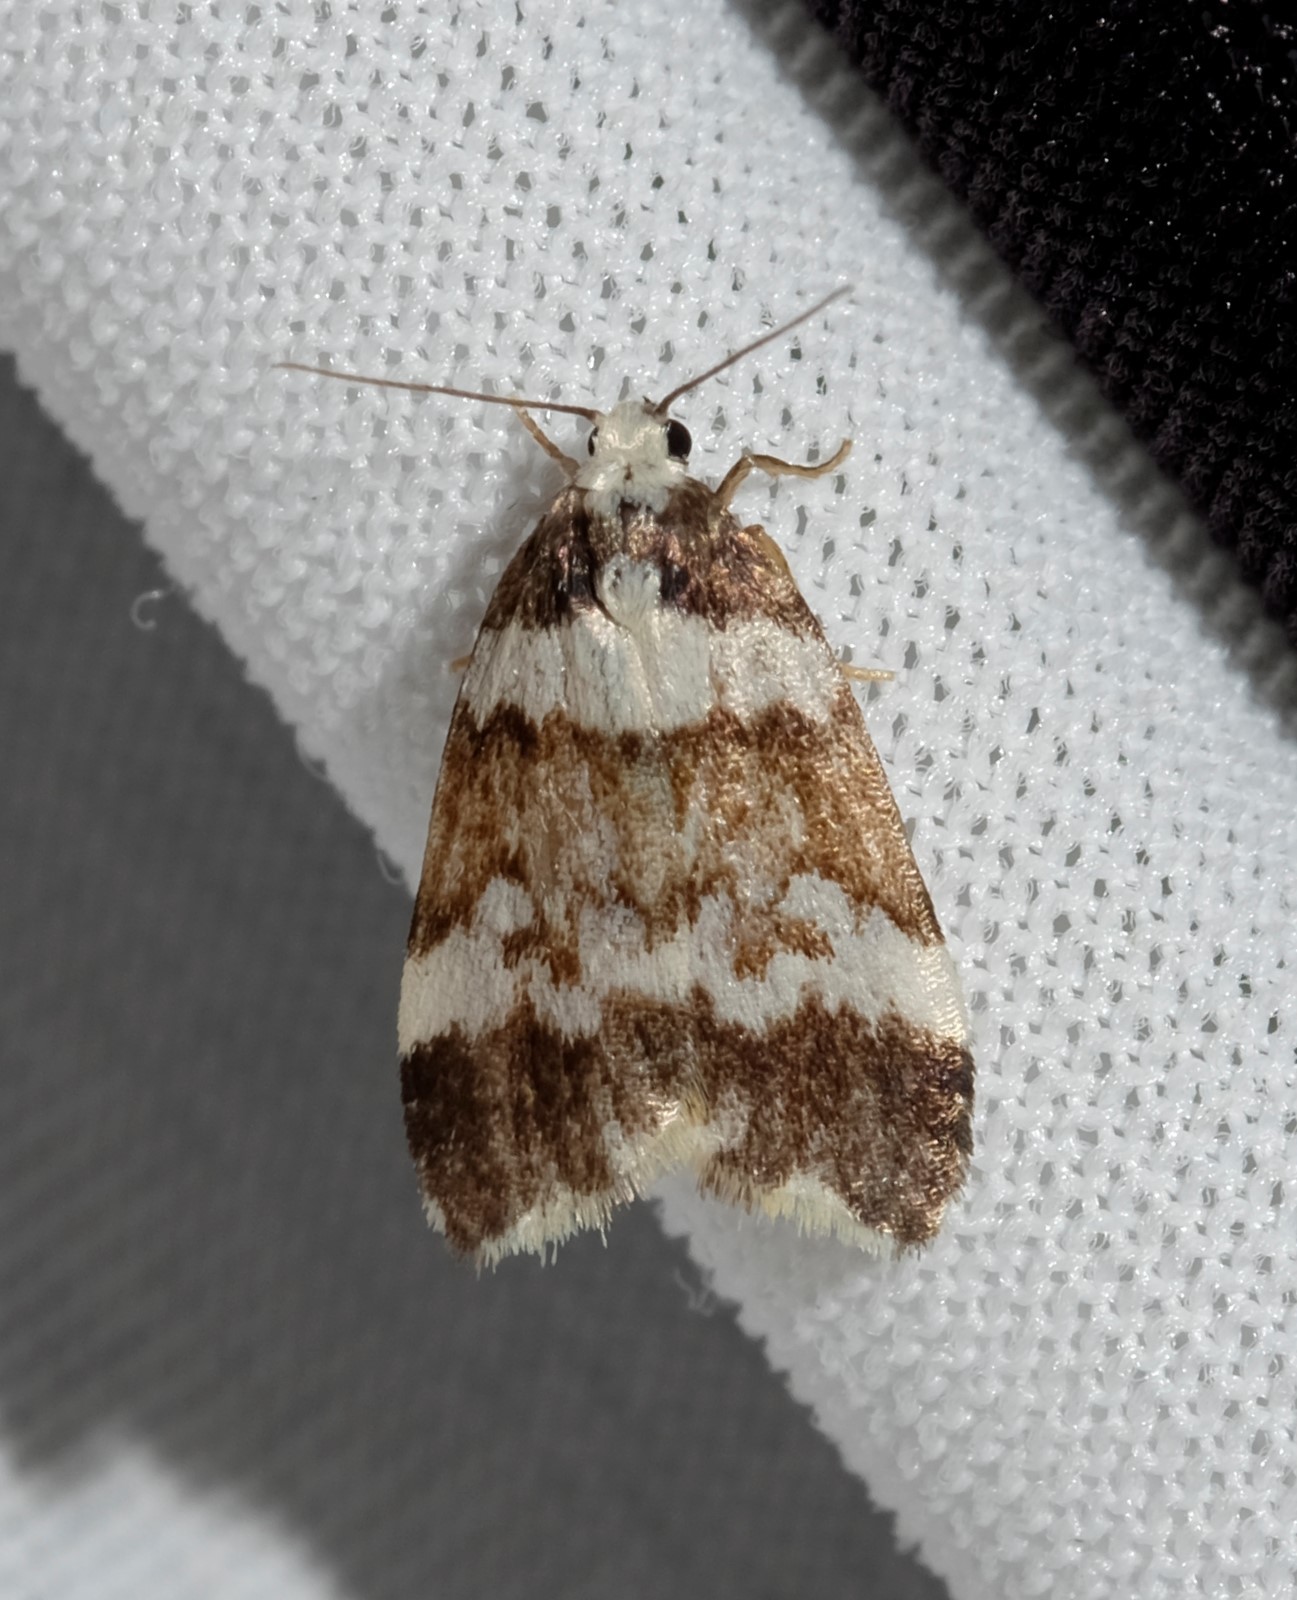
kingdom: Animalia
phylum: Arthropoda
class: Insecta
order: Lepidoptera
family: Erebidae
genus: Halone
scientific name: Halone sejuncta
